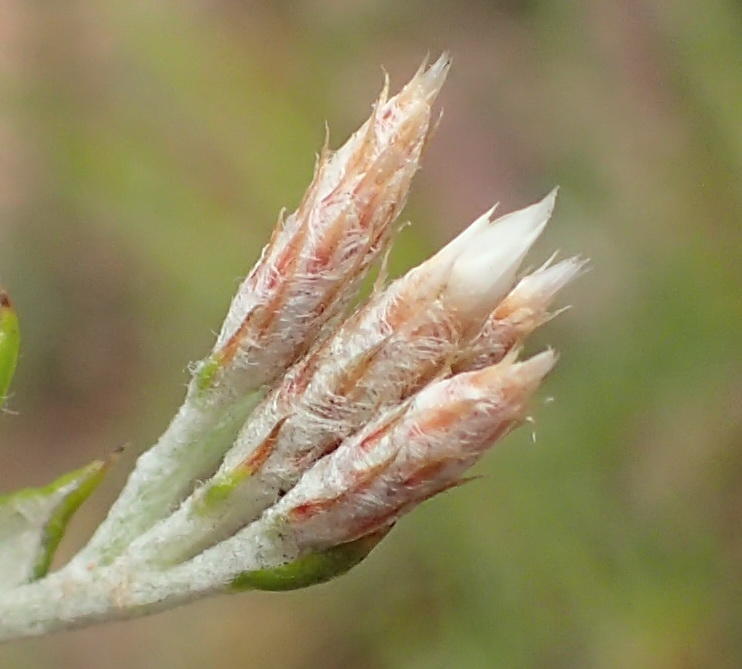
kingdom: Plantae
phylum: Tracheophyta
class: Magnoliopsida
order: Asterales
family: Asteraceae
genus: Metalasia
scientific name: Metalasia pulcherrima
